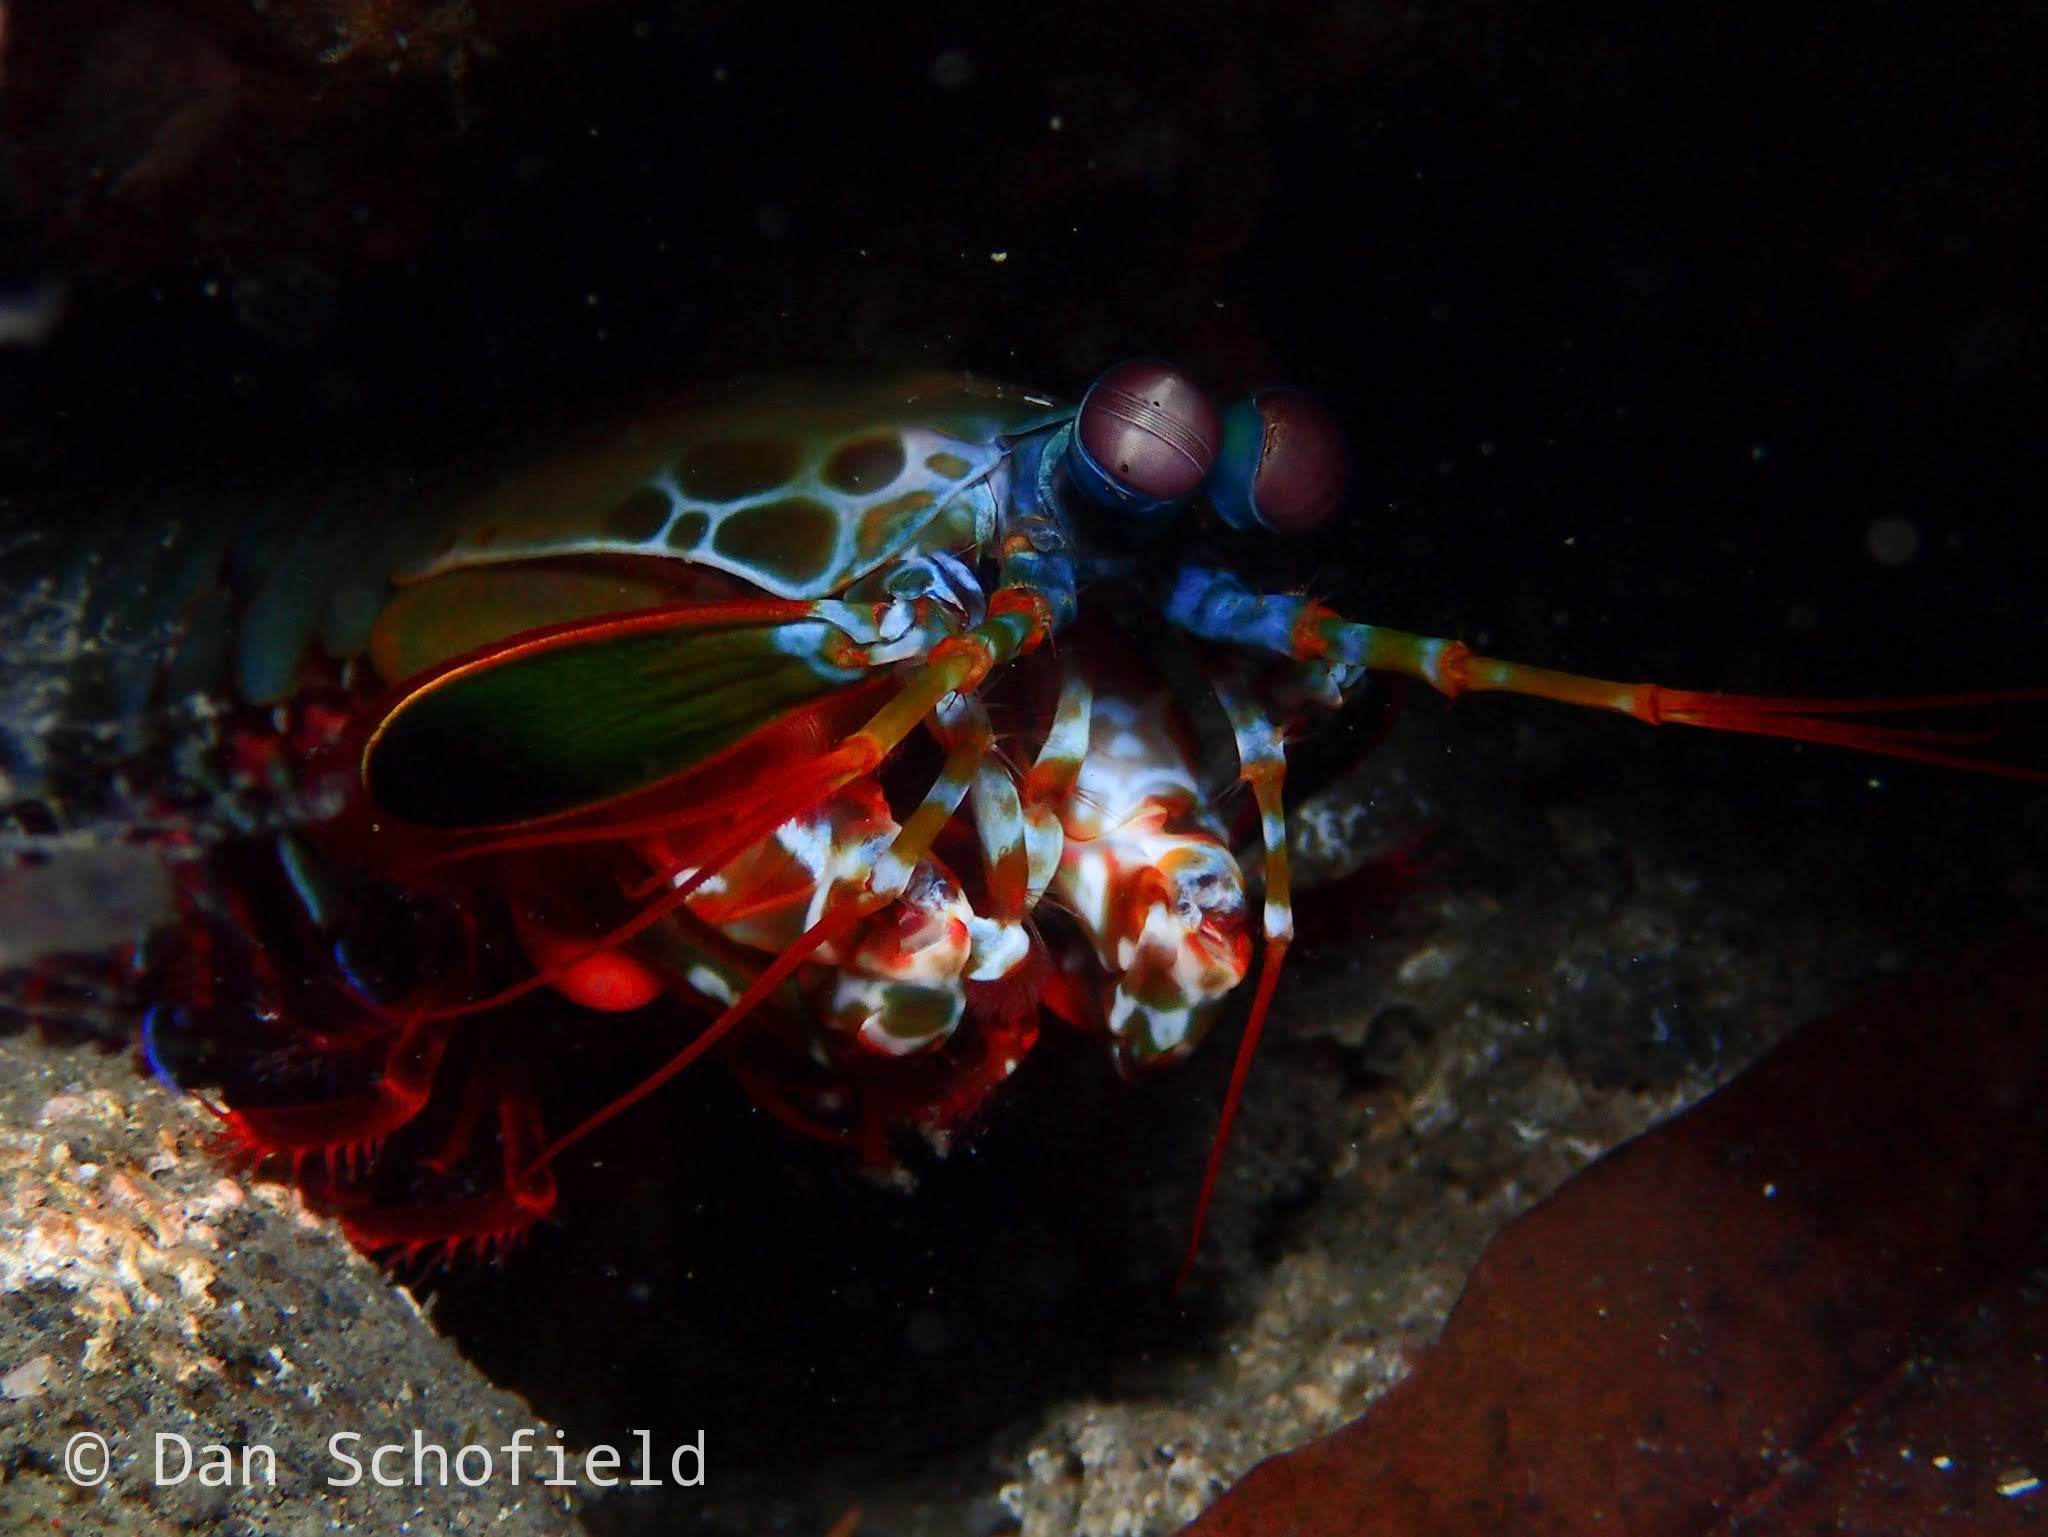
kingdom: Animalia
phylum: Arthropoda
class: Malacostraca
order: Stomatopoda
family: Odontodactylidae
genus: Odontodactylus
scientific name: Odontodactylus scyllarus
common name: Peacock mantis shrimp
